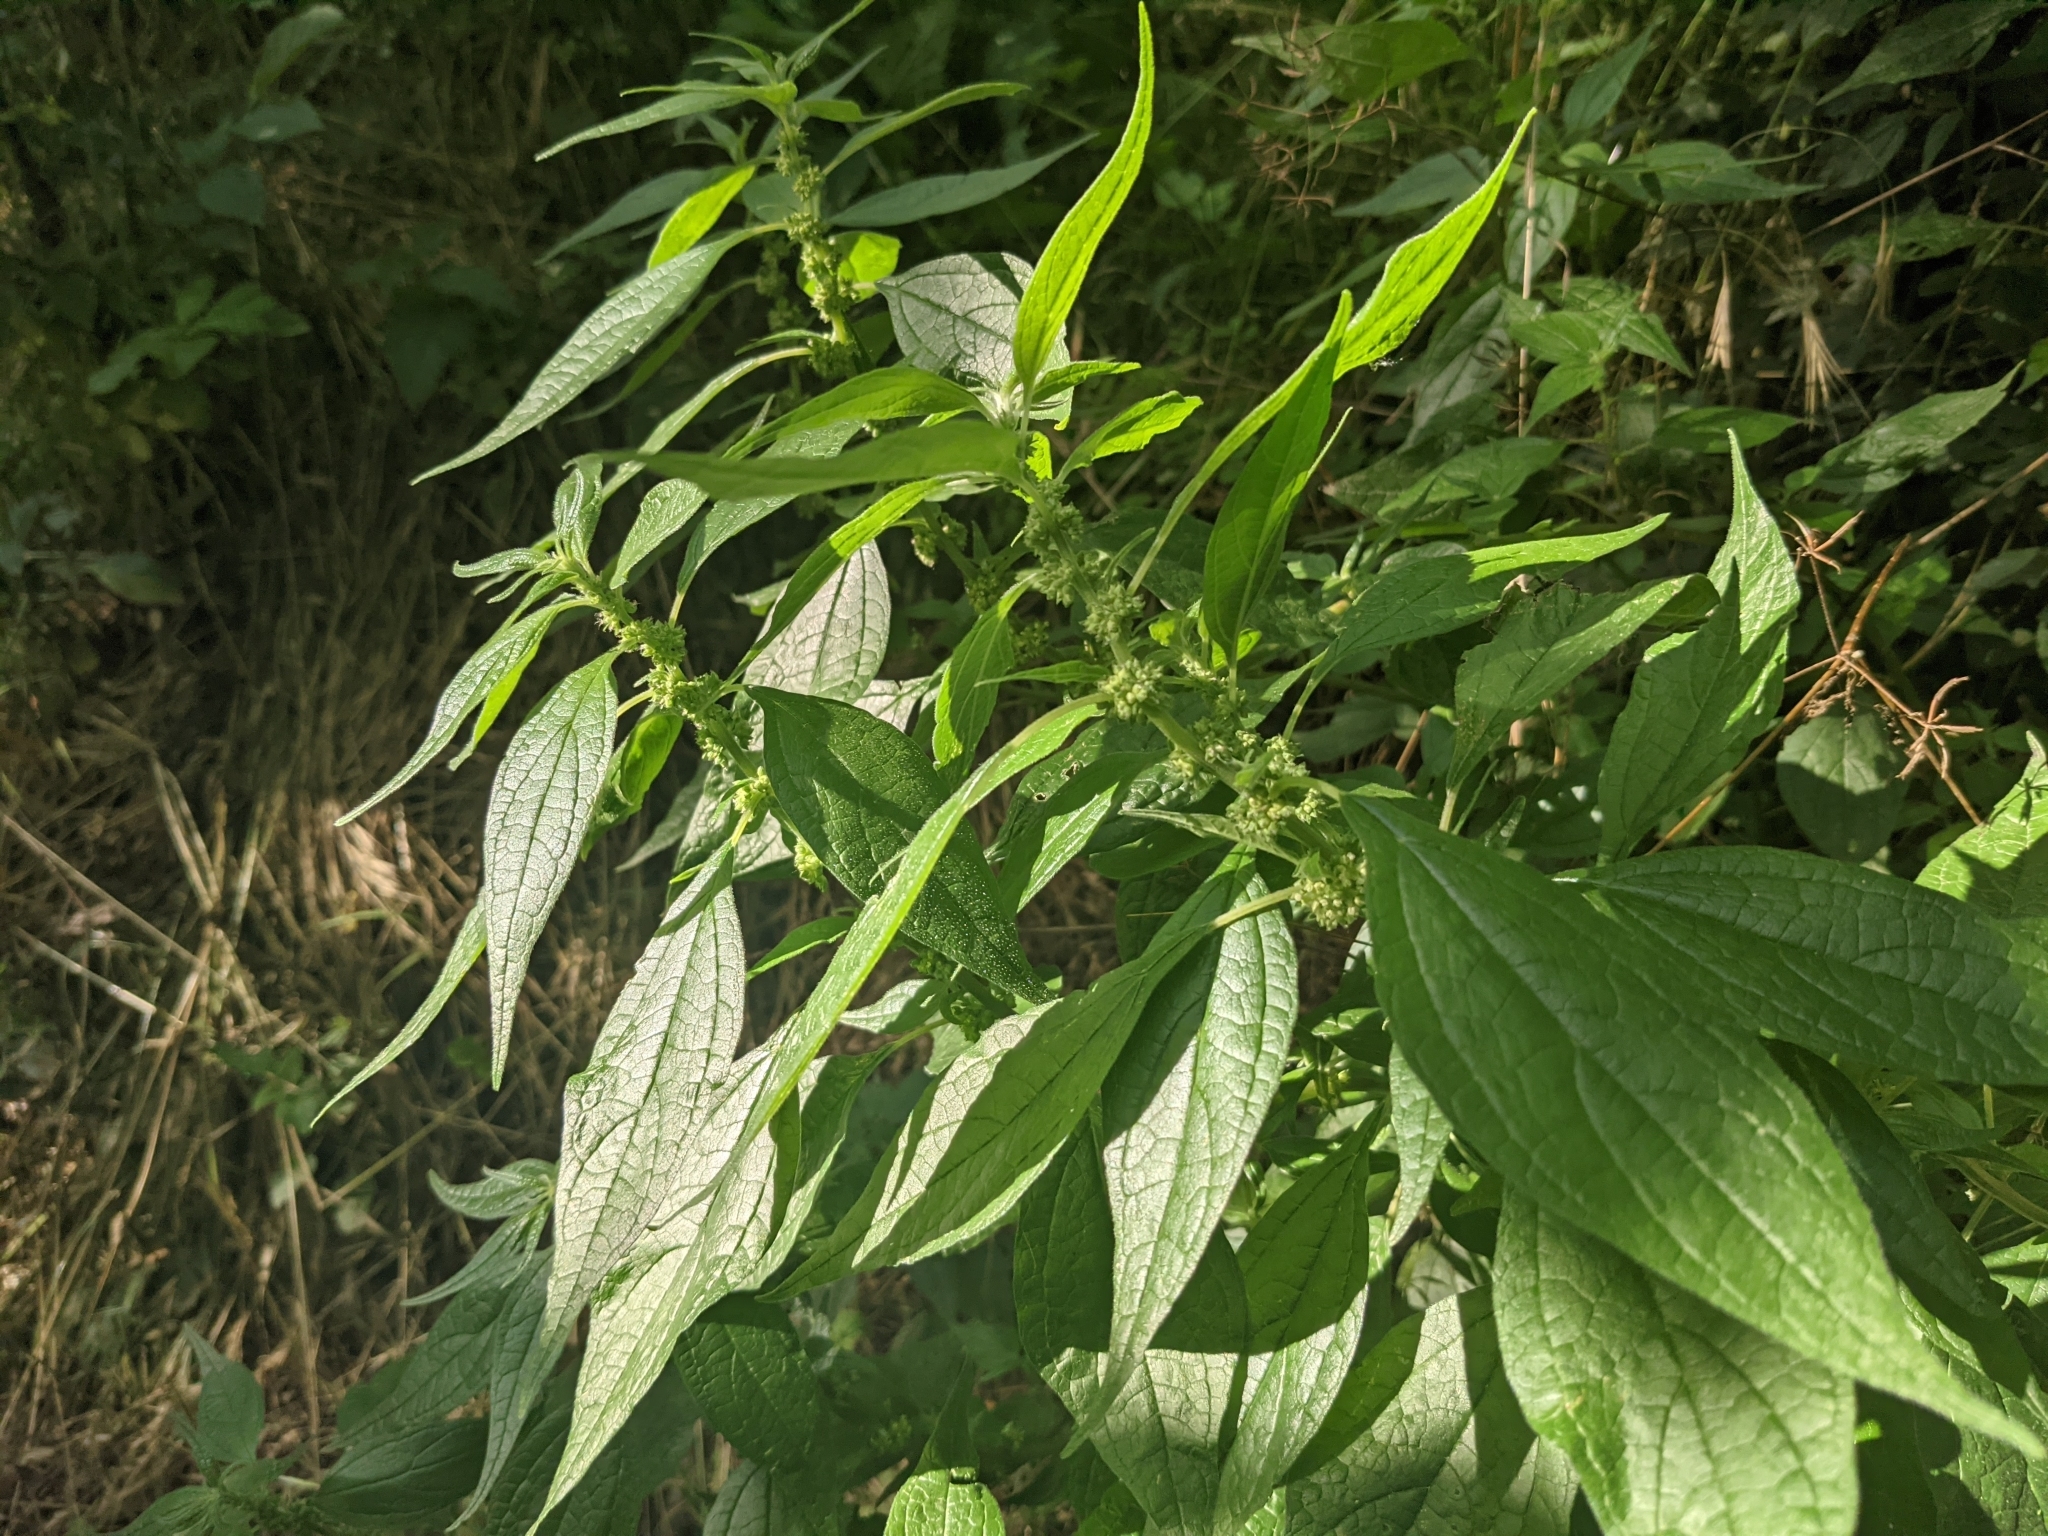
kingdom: Plantae
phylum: Tracheophyta
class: Magnoliopsida
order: Rosales
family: Urticaceae
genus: Parietaria
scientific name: Parietaria officinalis
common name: Eastern pellitory-of-the-wall
